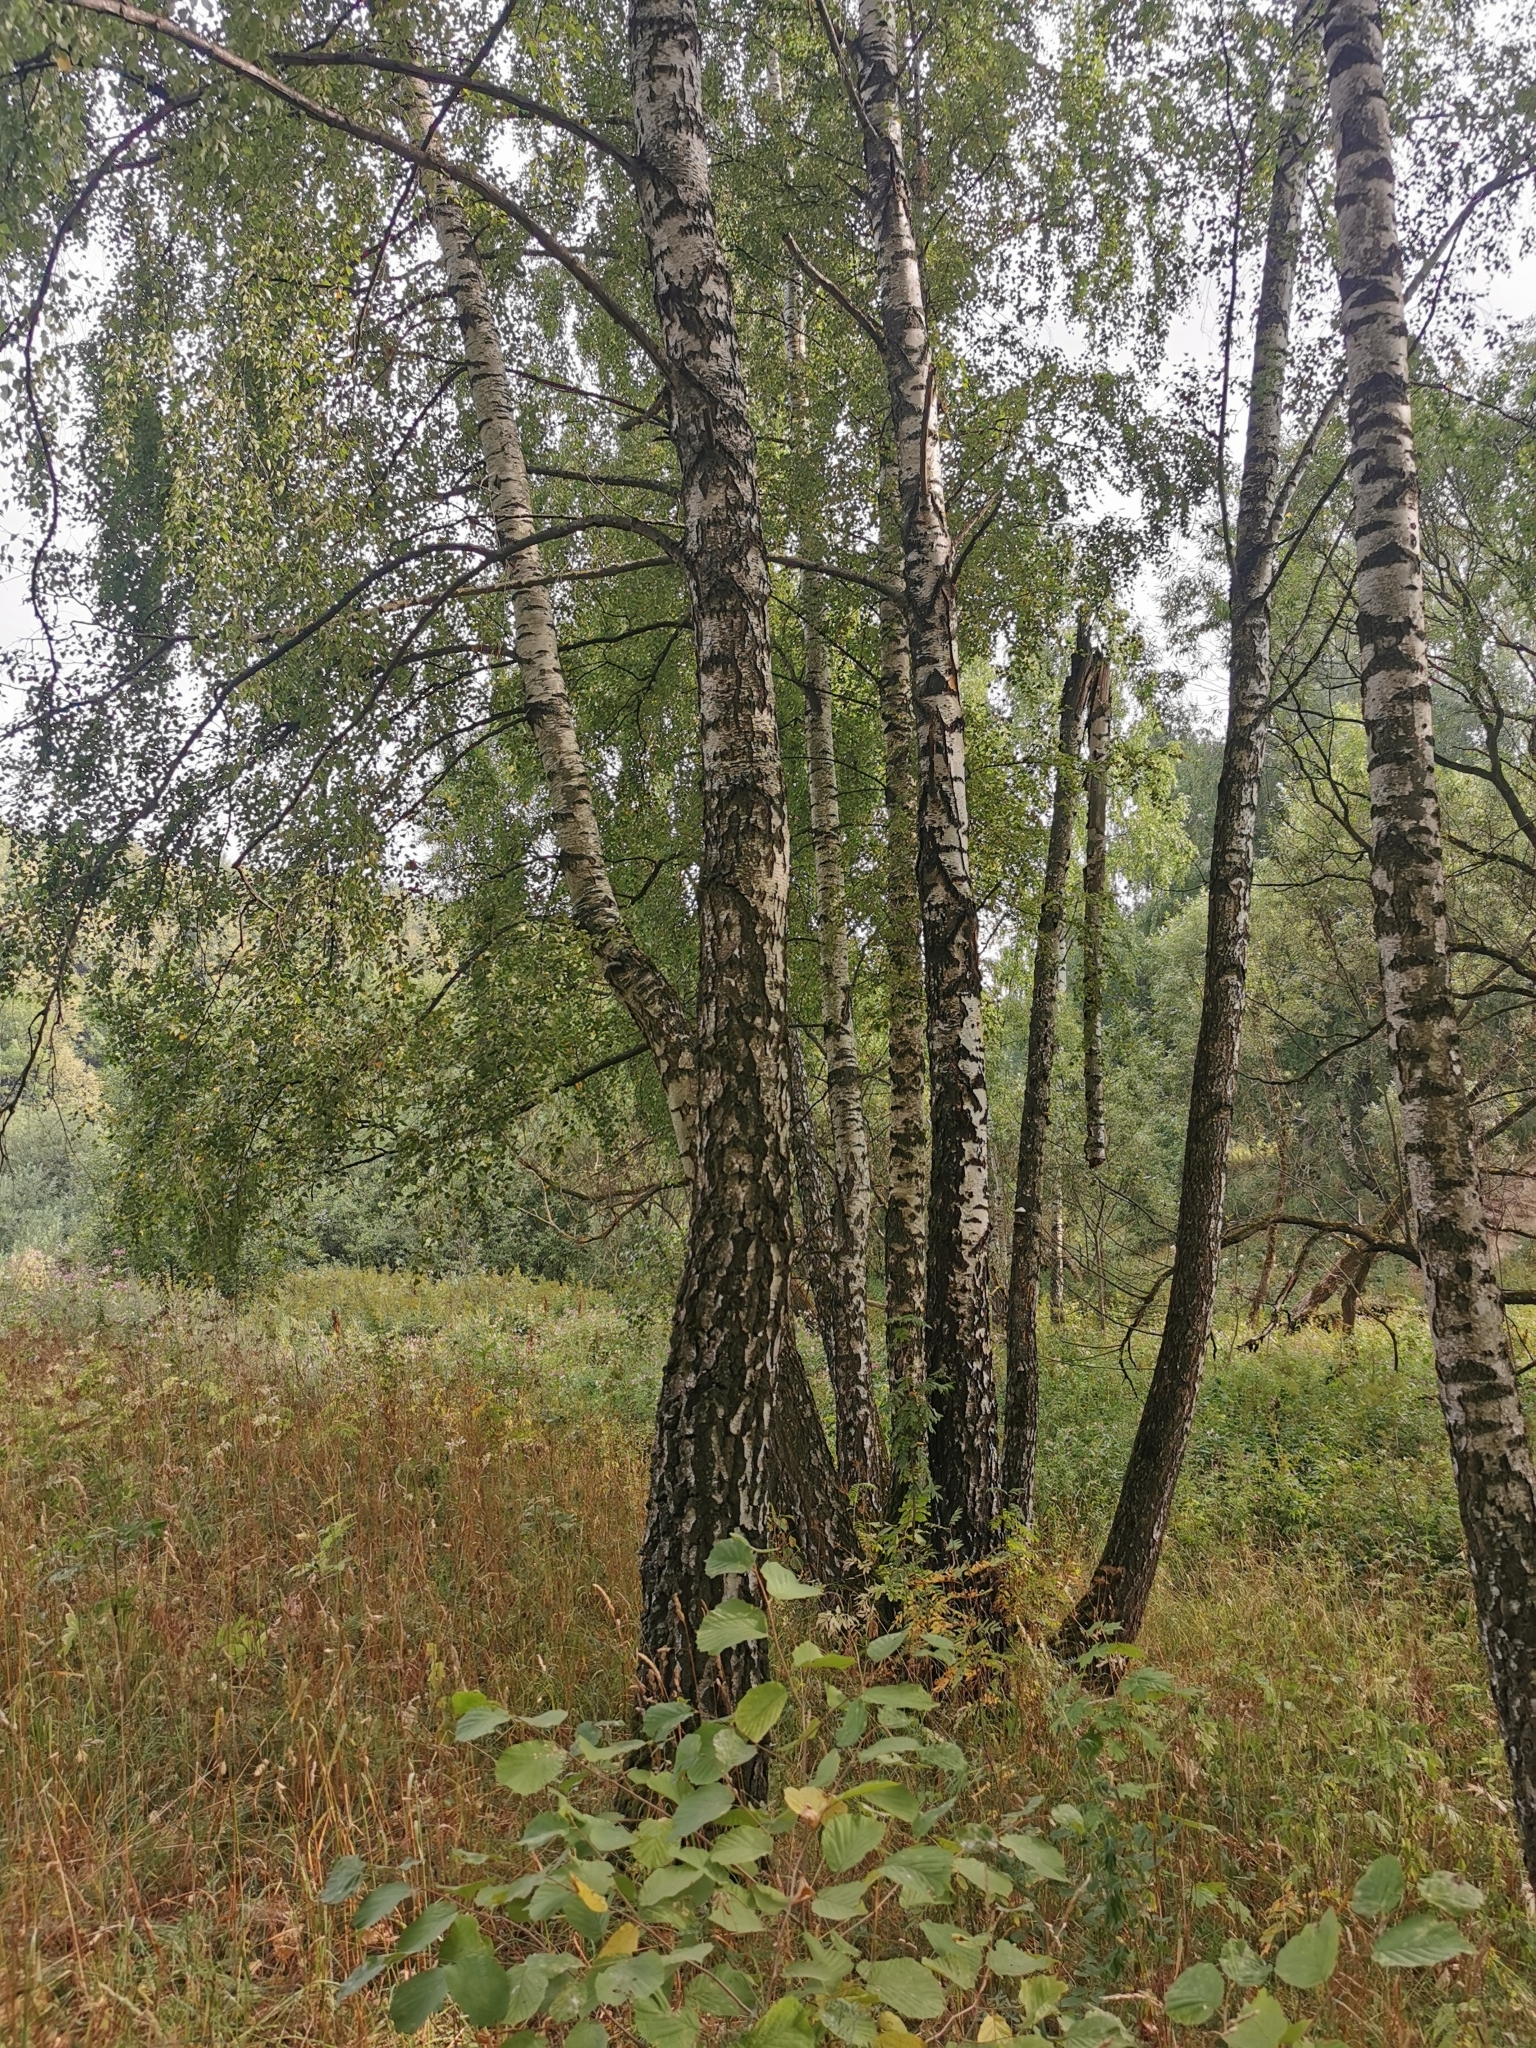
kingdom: Plantae
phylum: Tracheophyta
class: Magnoliopsida
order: Fagales
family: Betulaceae
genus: Betula
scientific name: Betula pendula
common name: Silver birch
